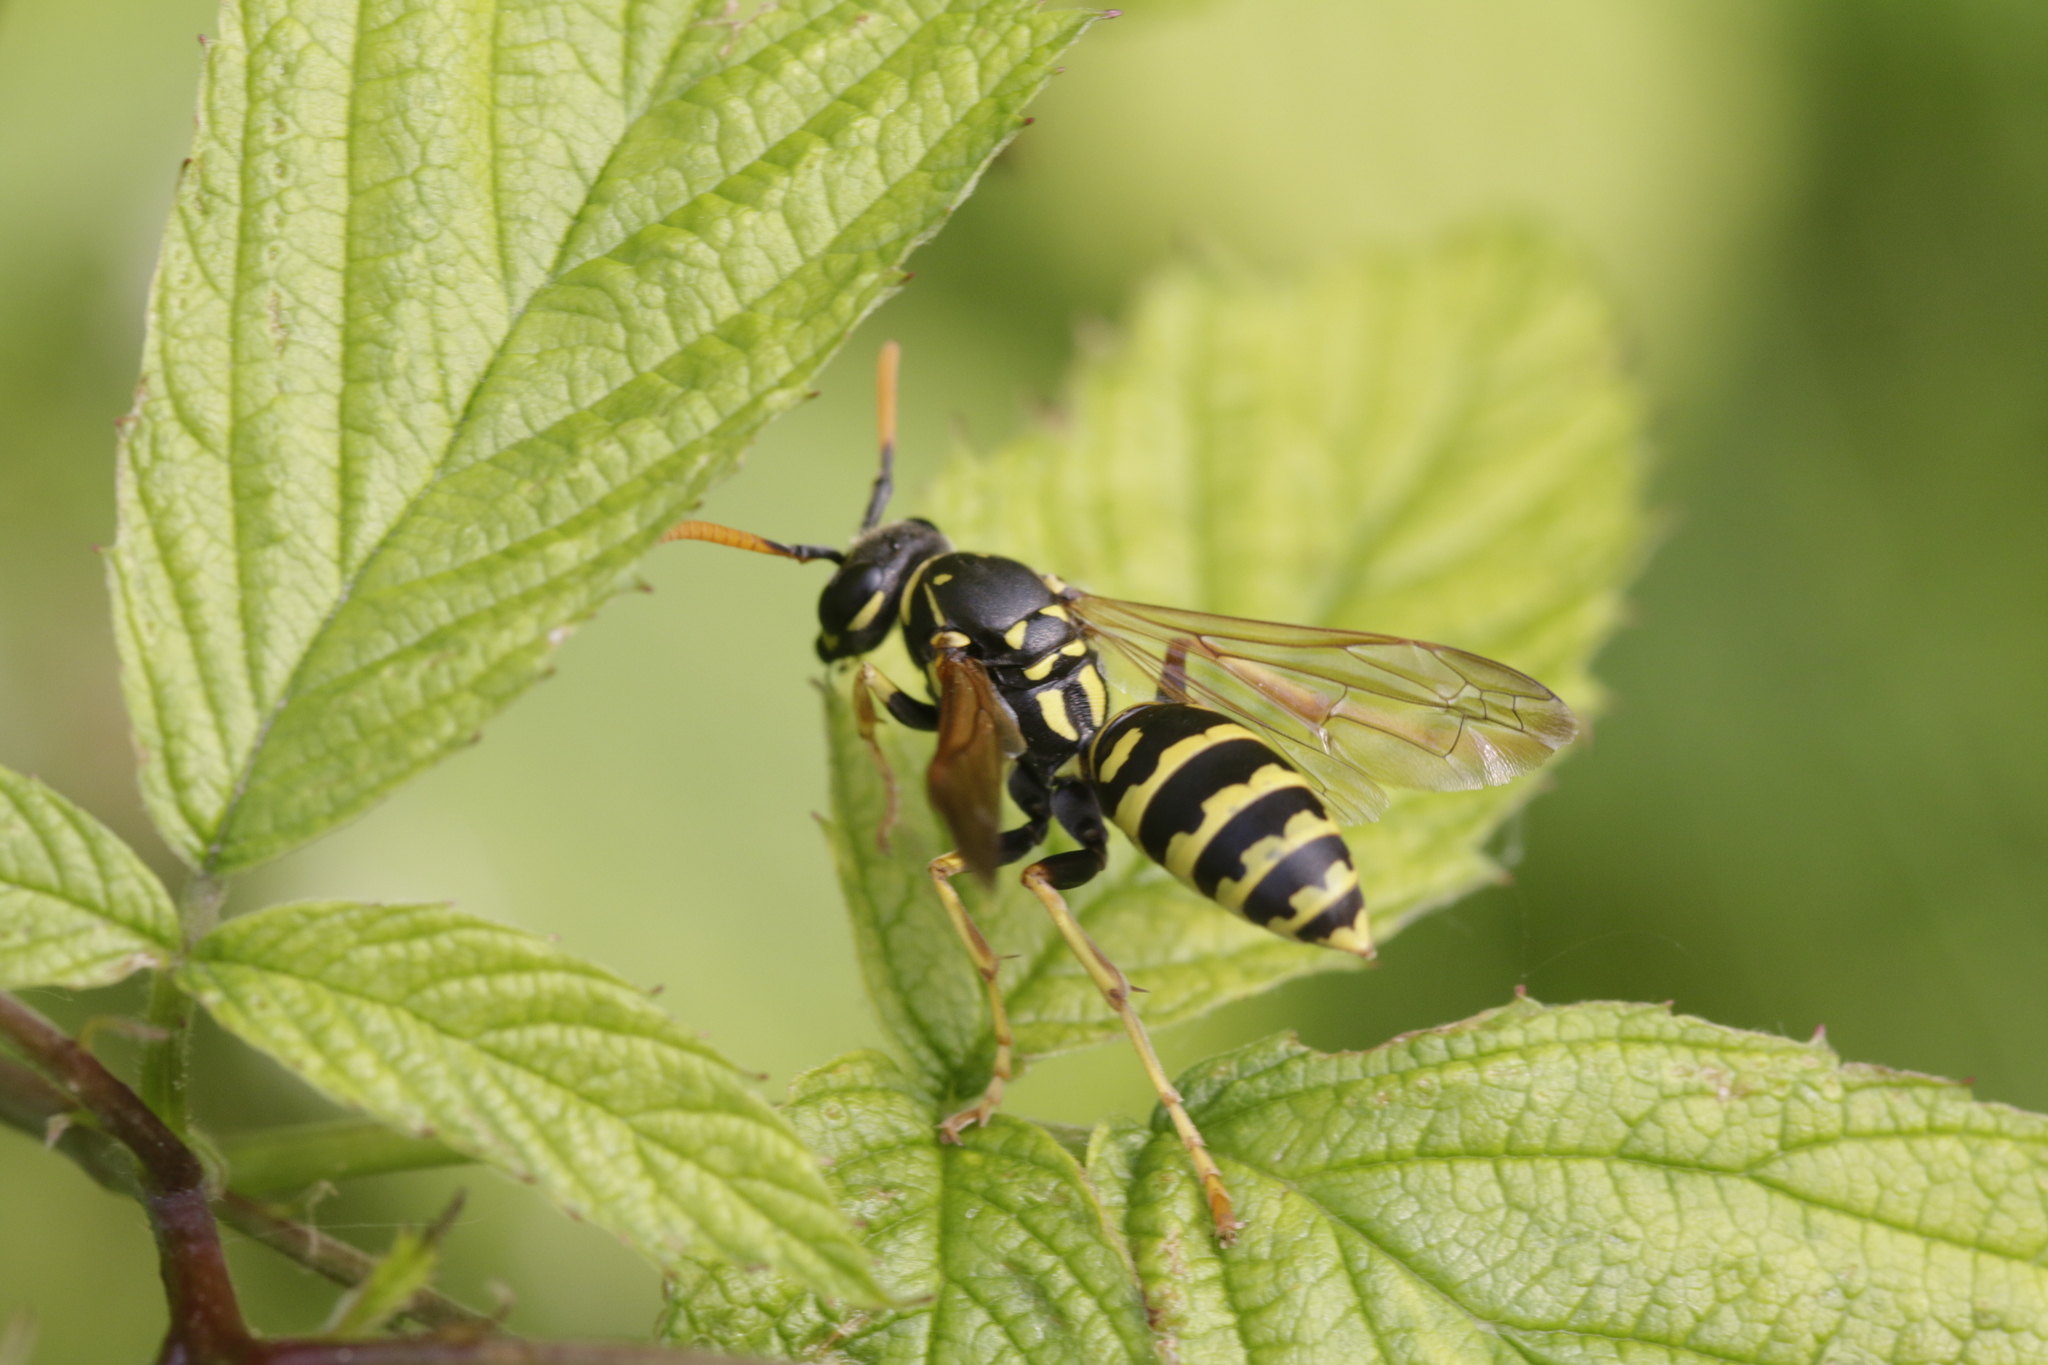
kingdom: Animalia
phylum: Arthropoda
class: Insecta
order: Hymenoptera
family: Eumenidae
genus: Polistes
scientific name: Polistes dominula
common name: Paper wasp
